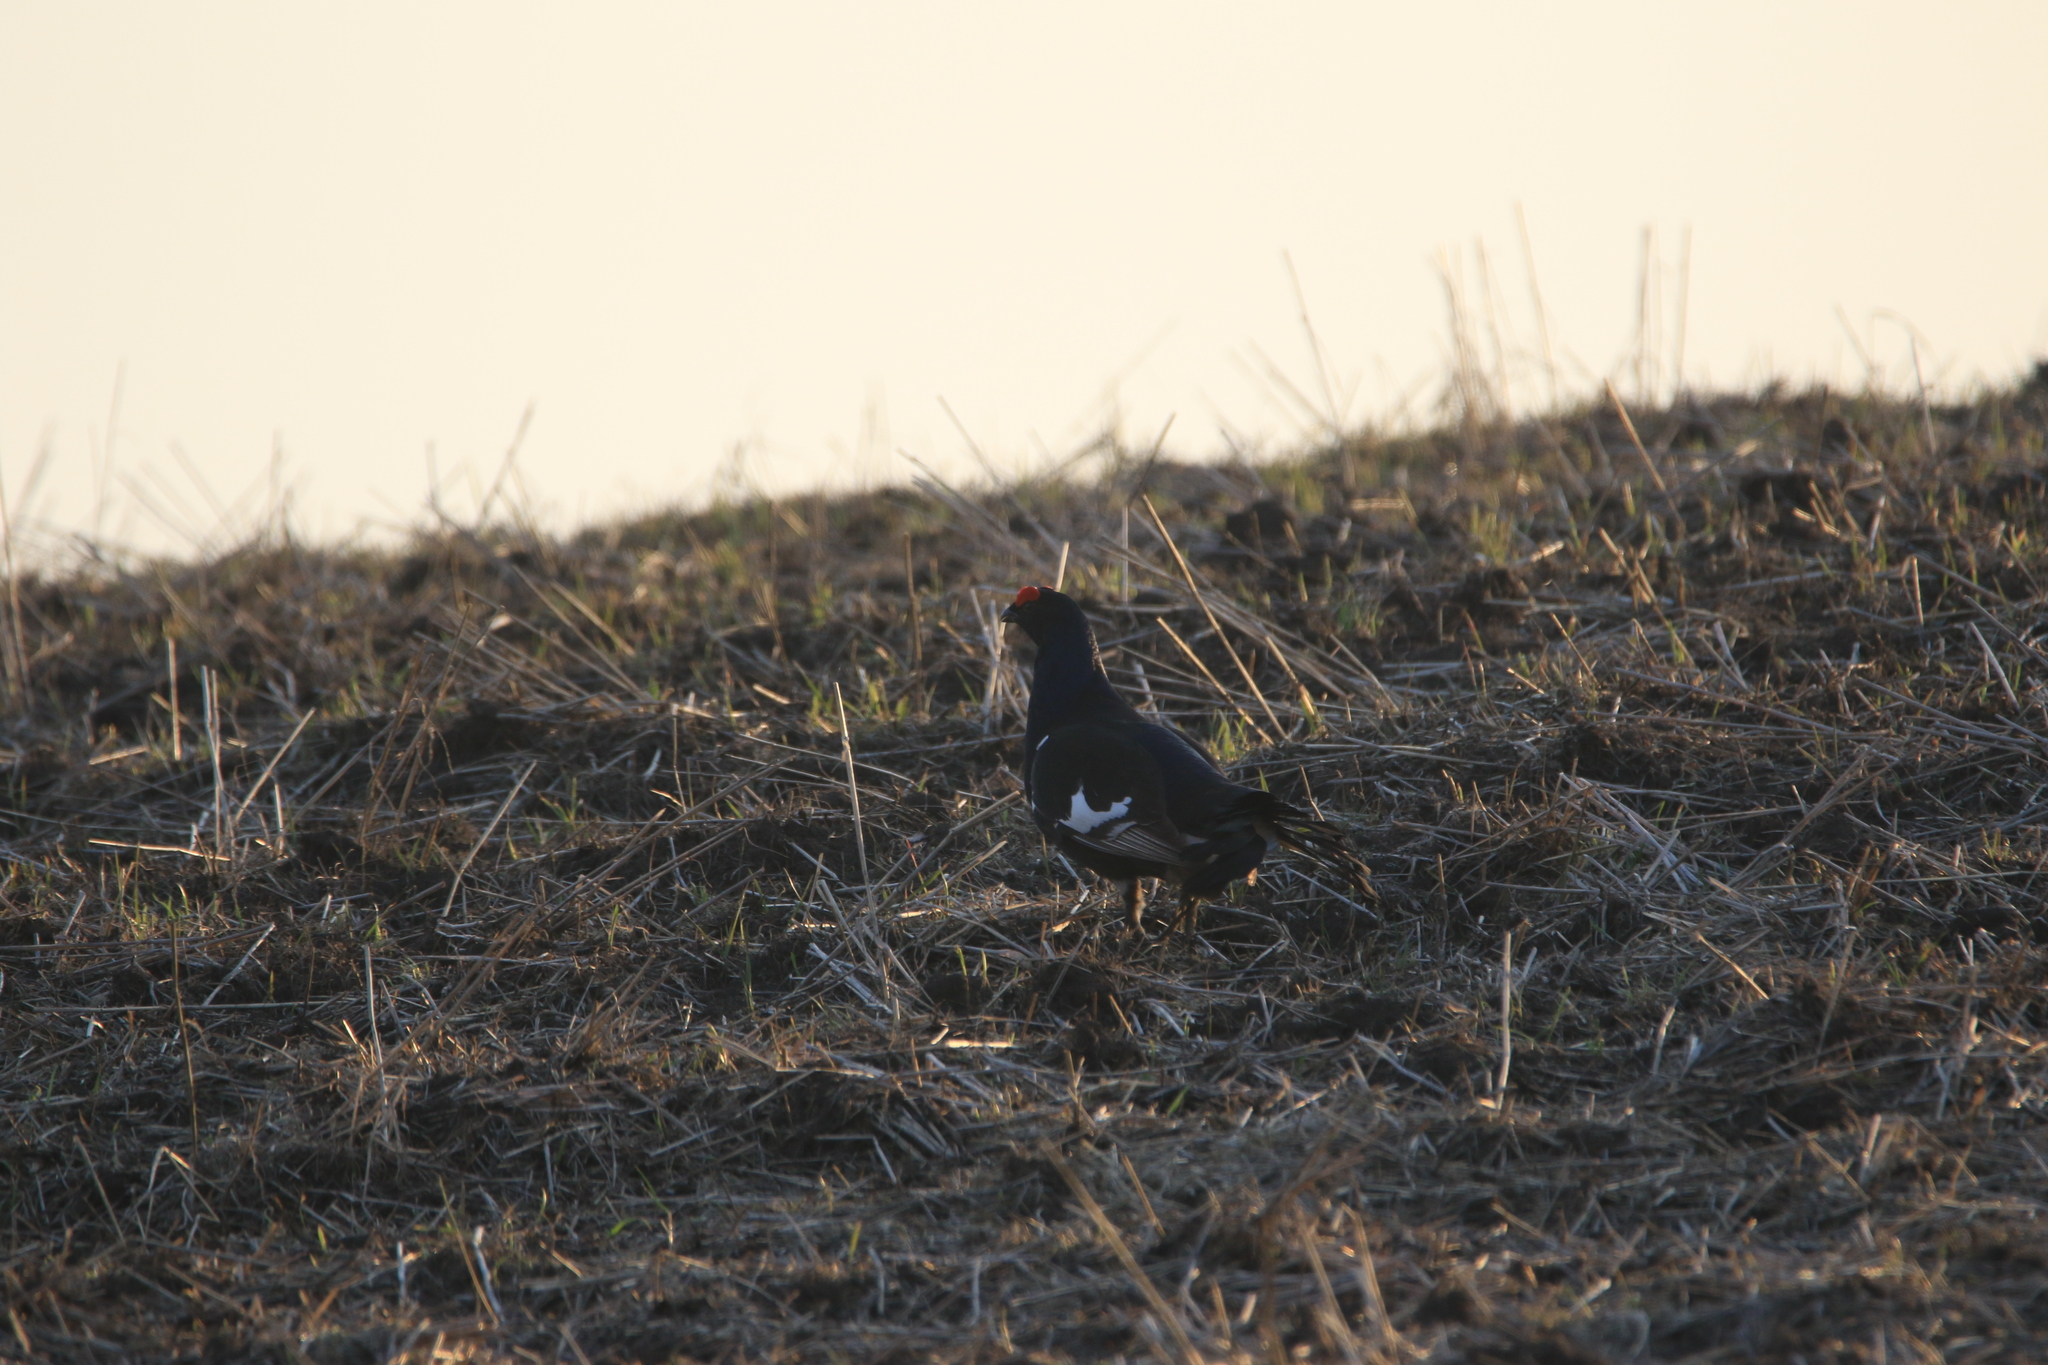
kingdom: Animalia
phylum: Chordata
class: Aves
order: Galliformes
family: Phasianidae
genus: Lyrurus
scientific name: Lyrurus tetrix
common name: Black grouse
